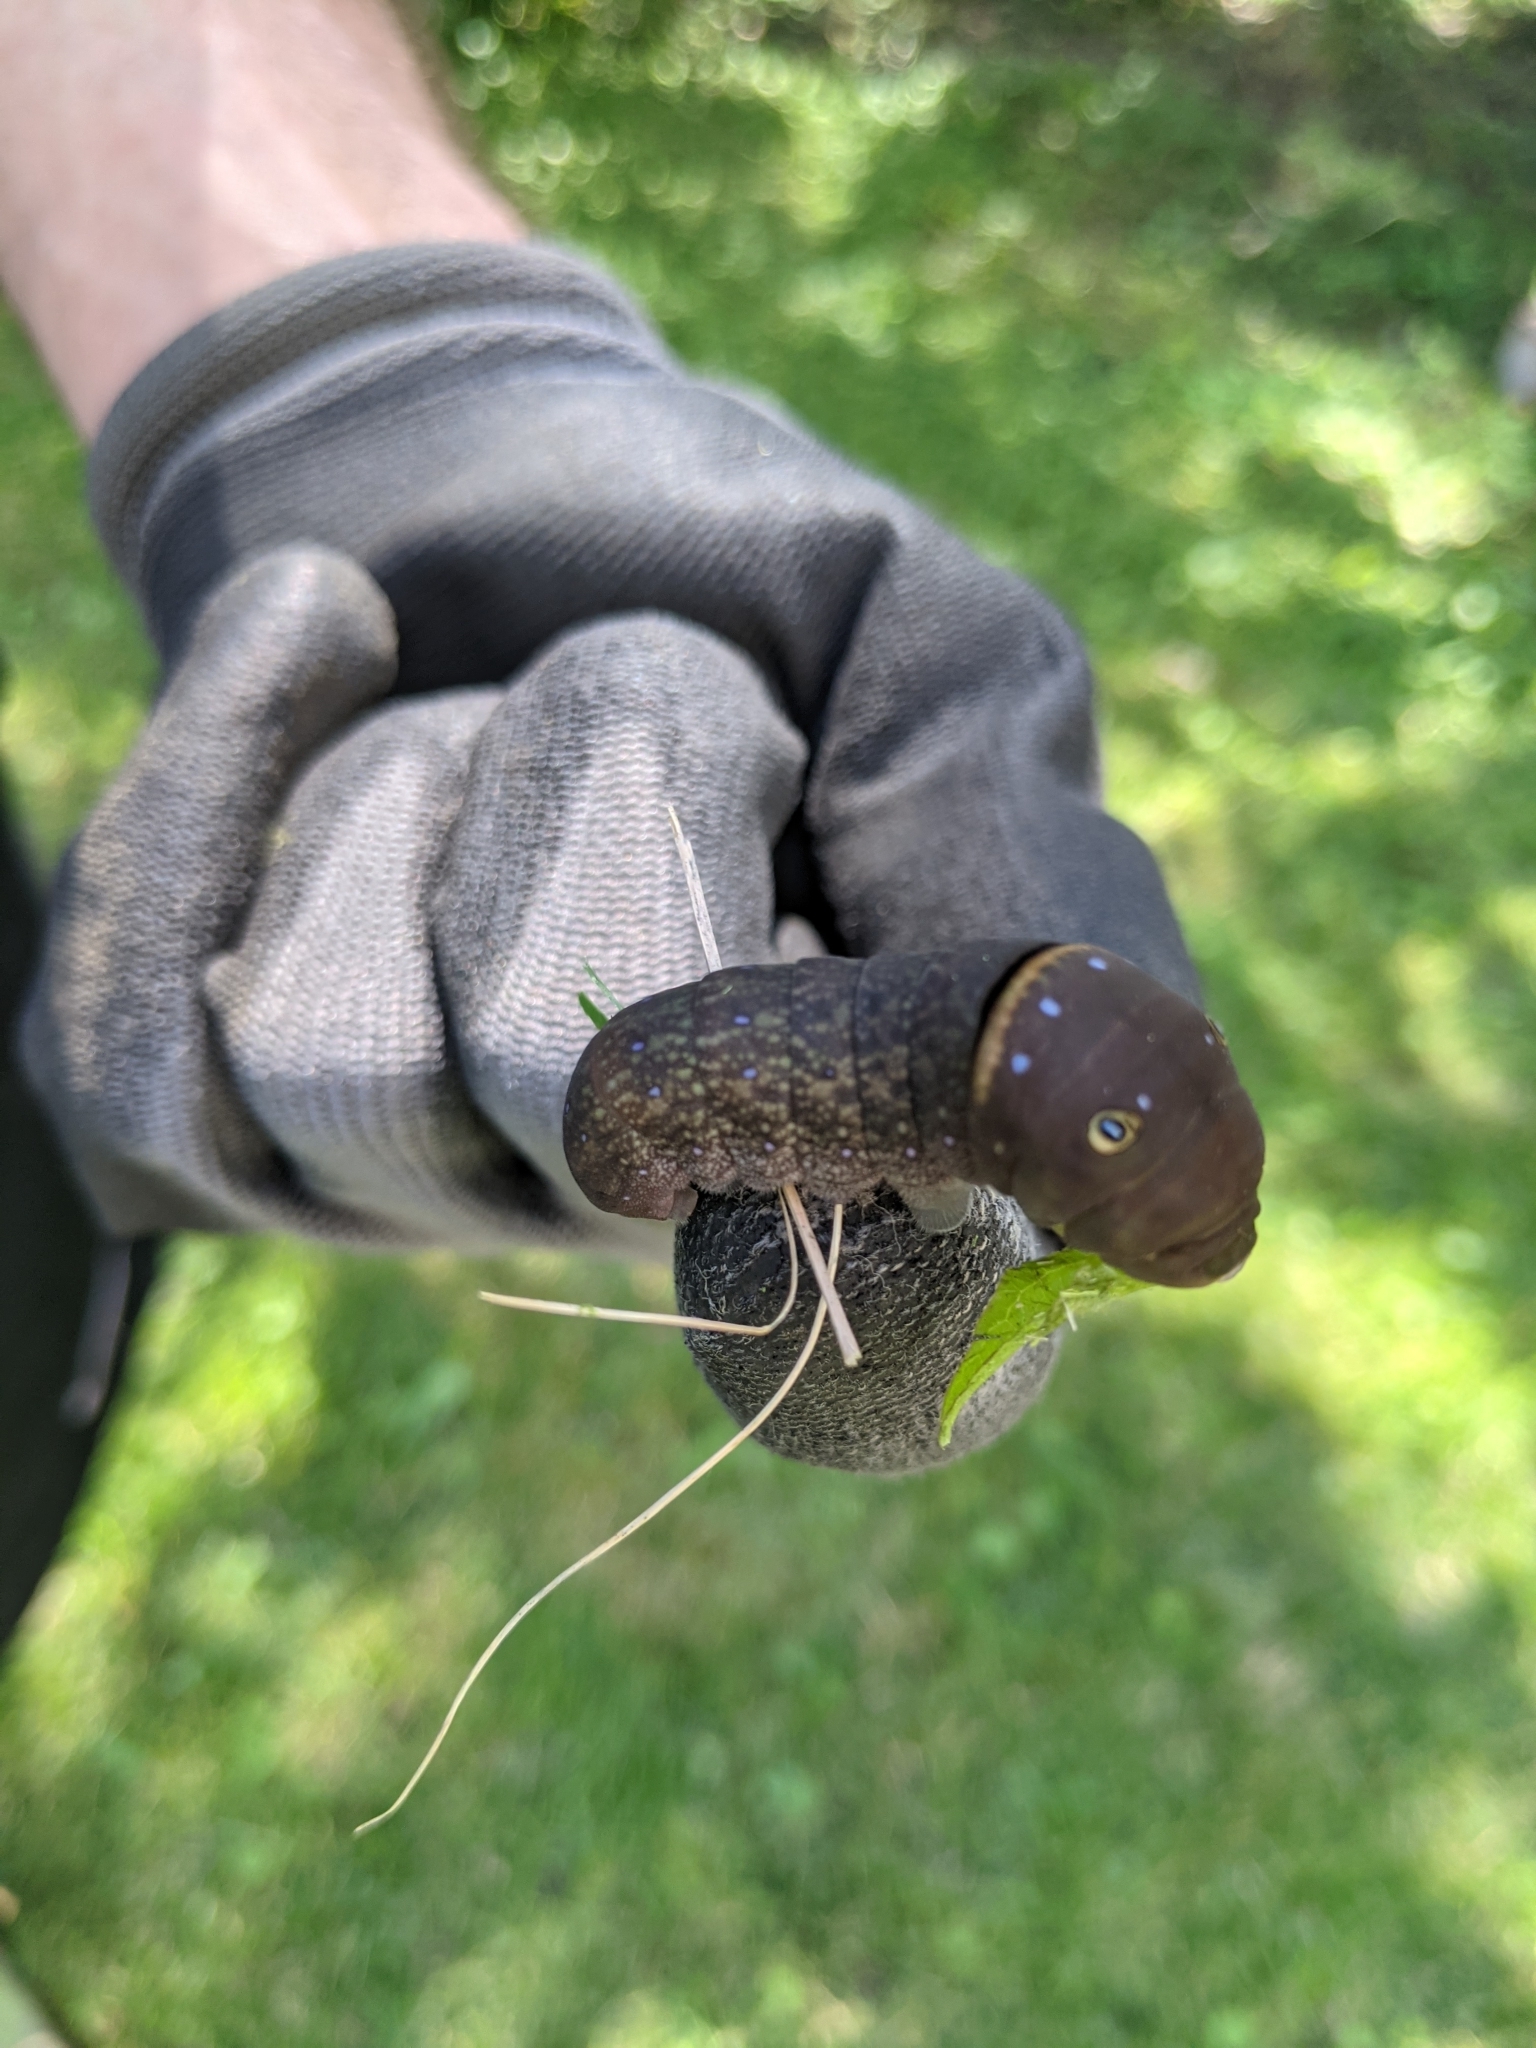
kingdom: Animalia
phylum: Arthropoda
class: Insecta
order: Lepidoptera
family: Papilionidae
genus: Papilio
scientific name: Papilio glaucus
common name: Tiger swallowtail
